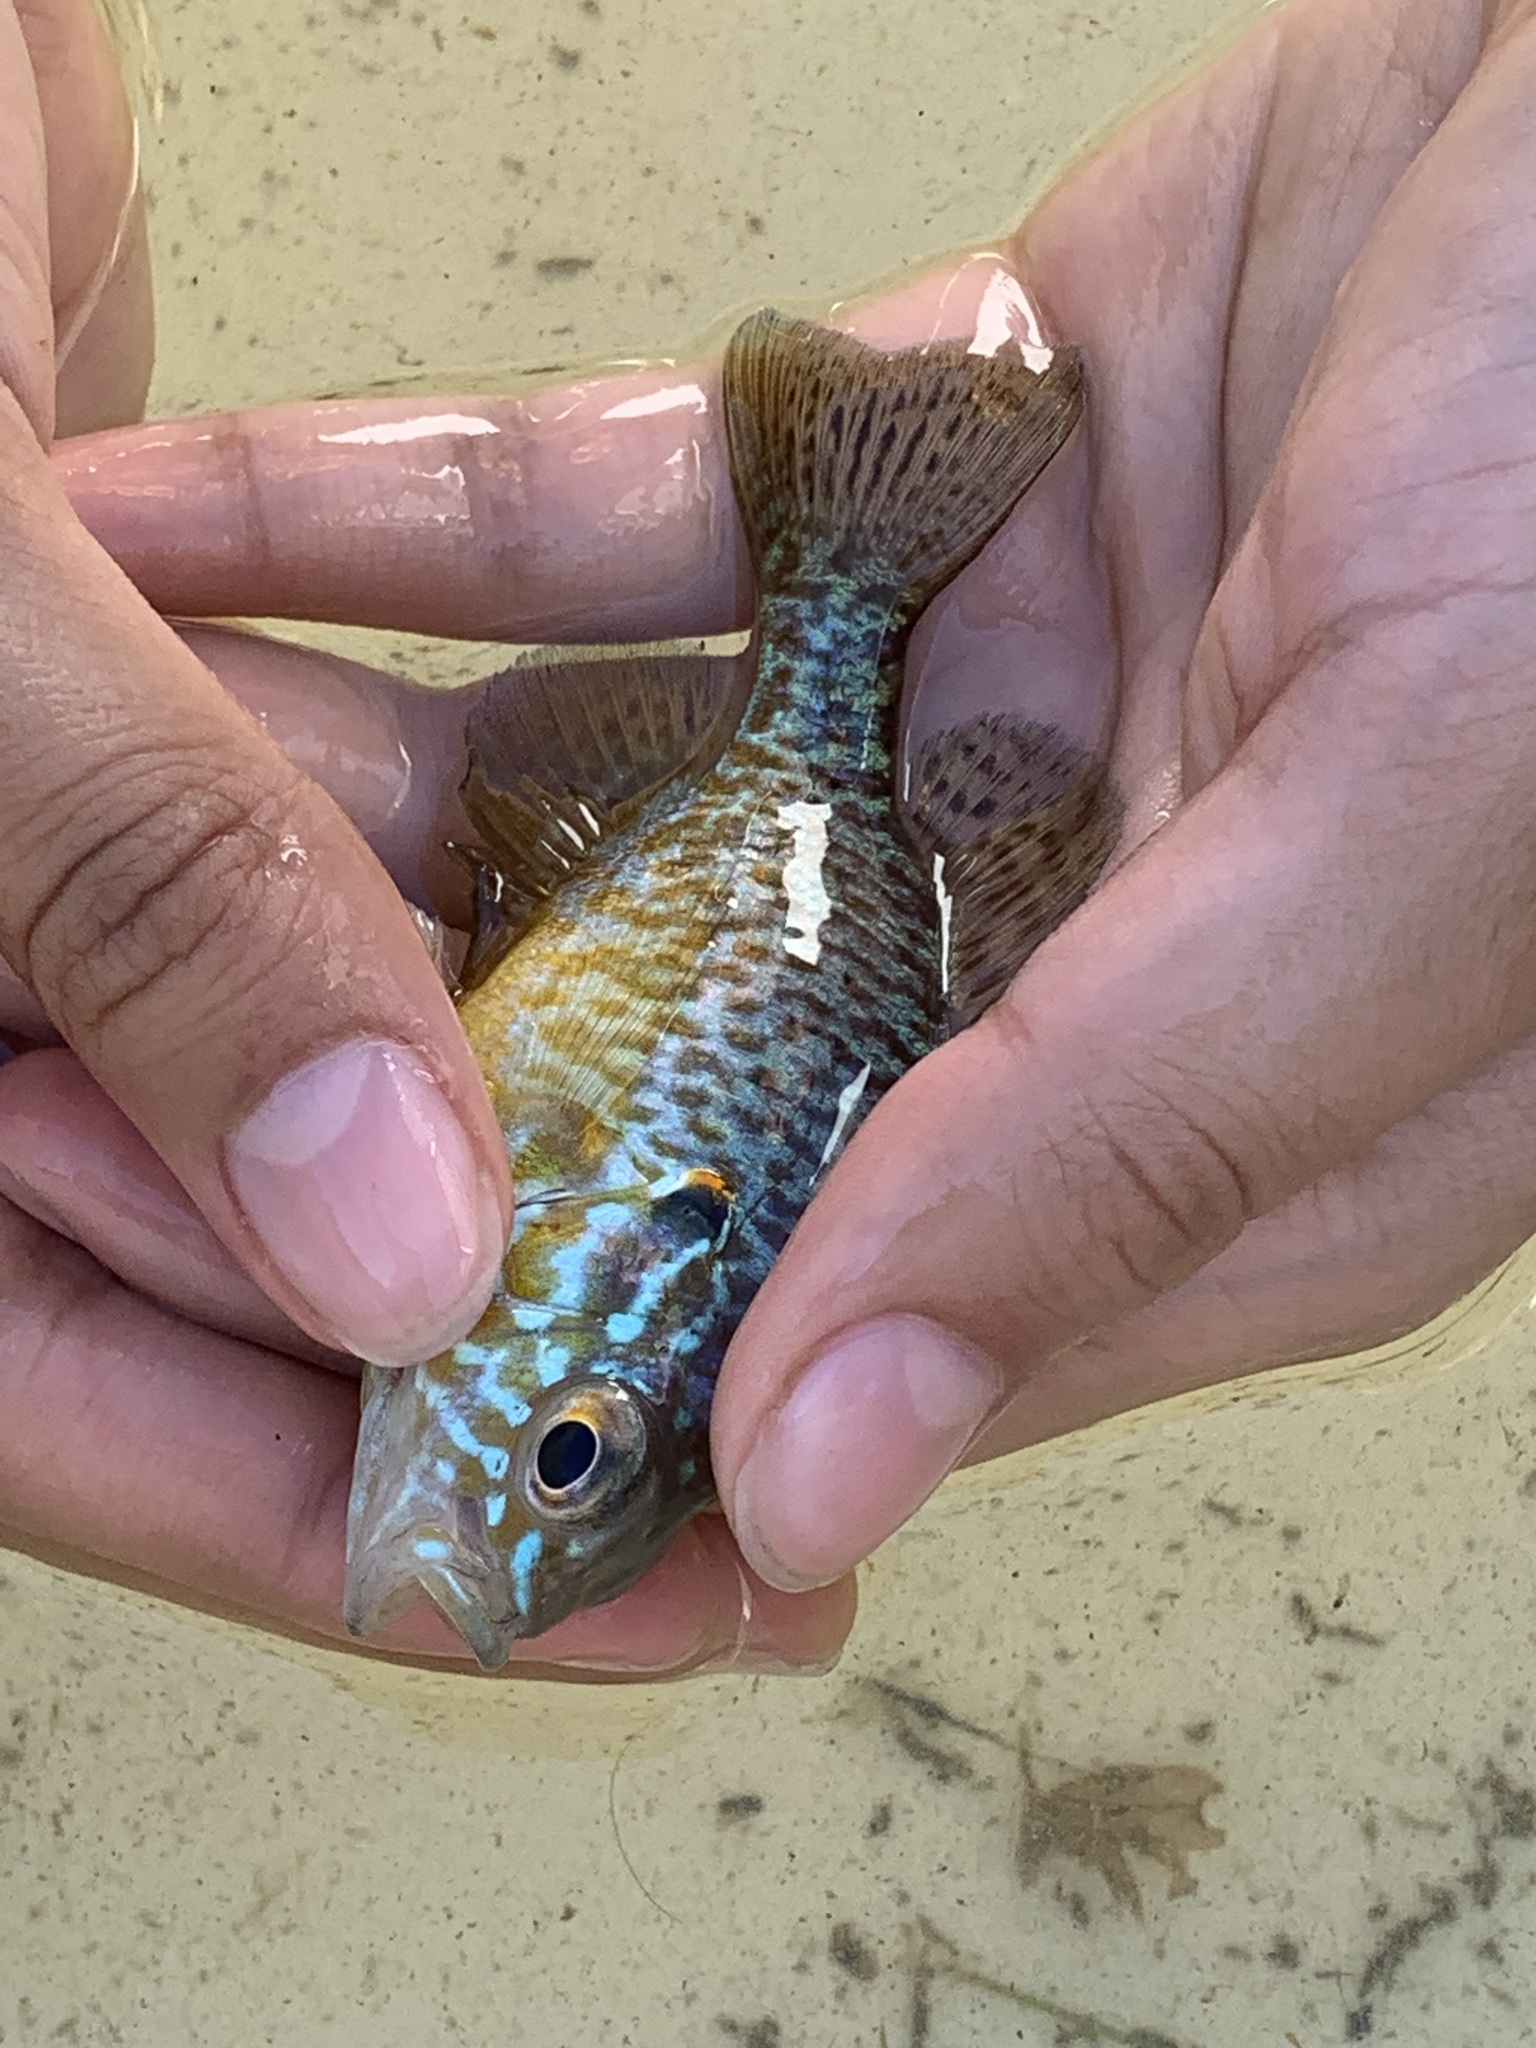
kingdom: Animalia
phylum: Chordata
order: Perciformes
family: Centrarchidae
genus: Lepomis
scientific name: Lepomis gibbosus
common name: Pumpkinseed
